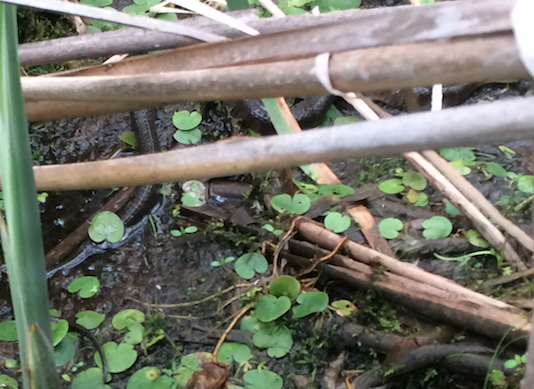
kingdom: Animalia
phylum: Chordata
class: Squamata
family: Colubridae
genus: Nerodia
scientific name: Nerodia sipedon
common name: Northern water snake
